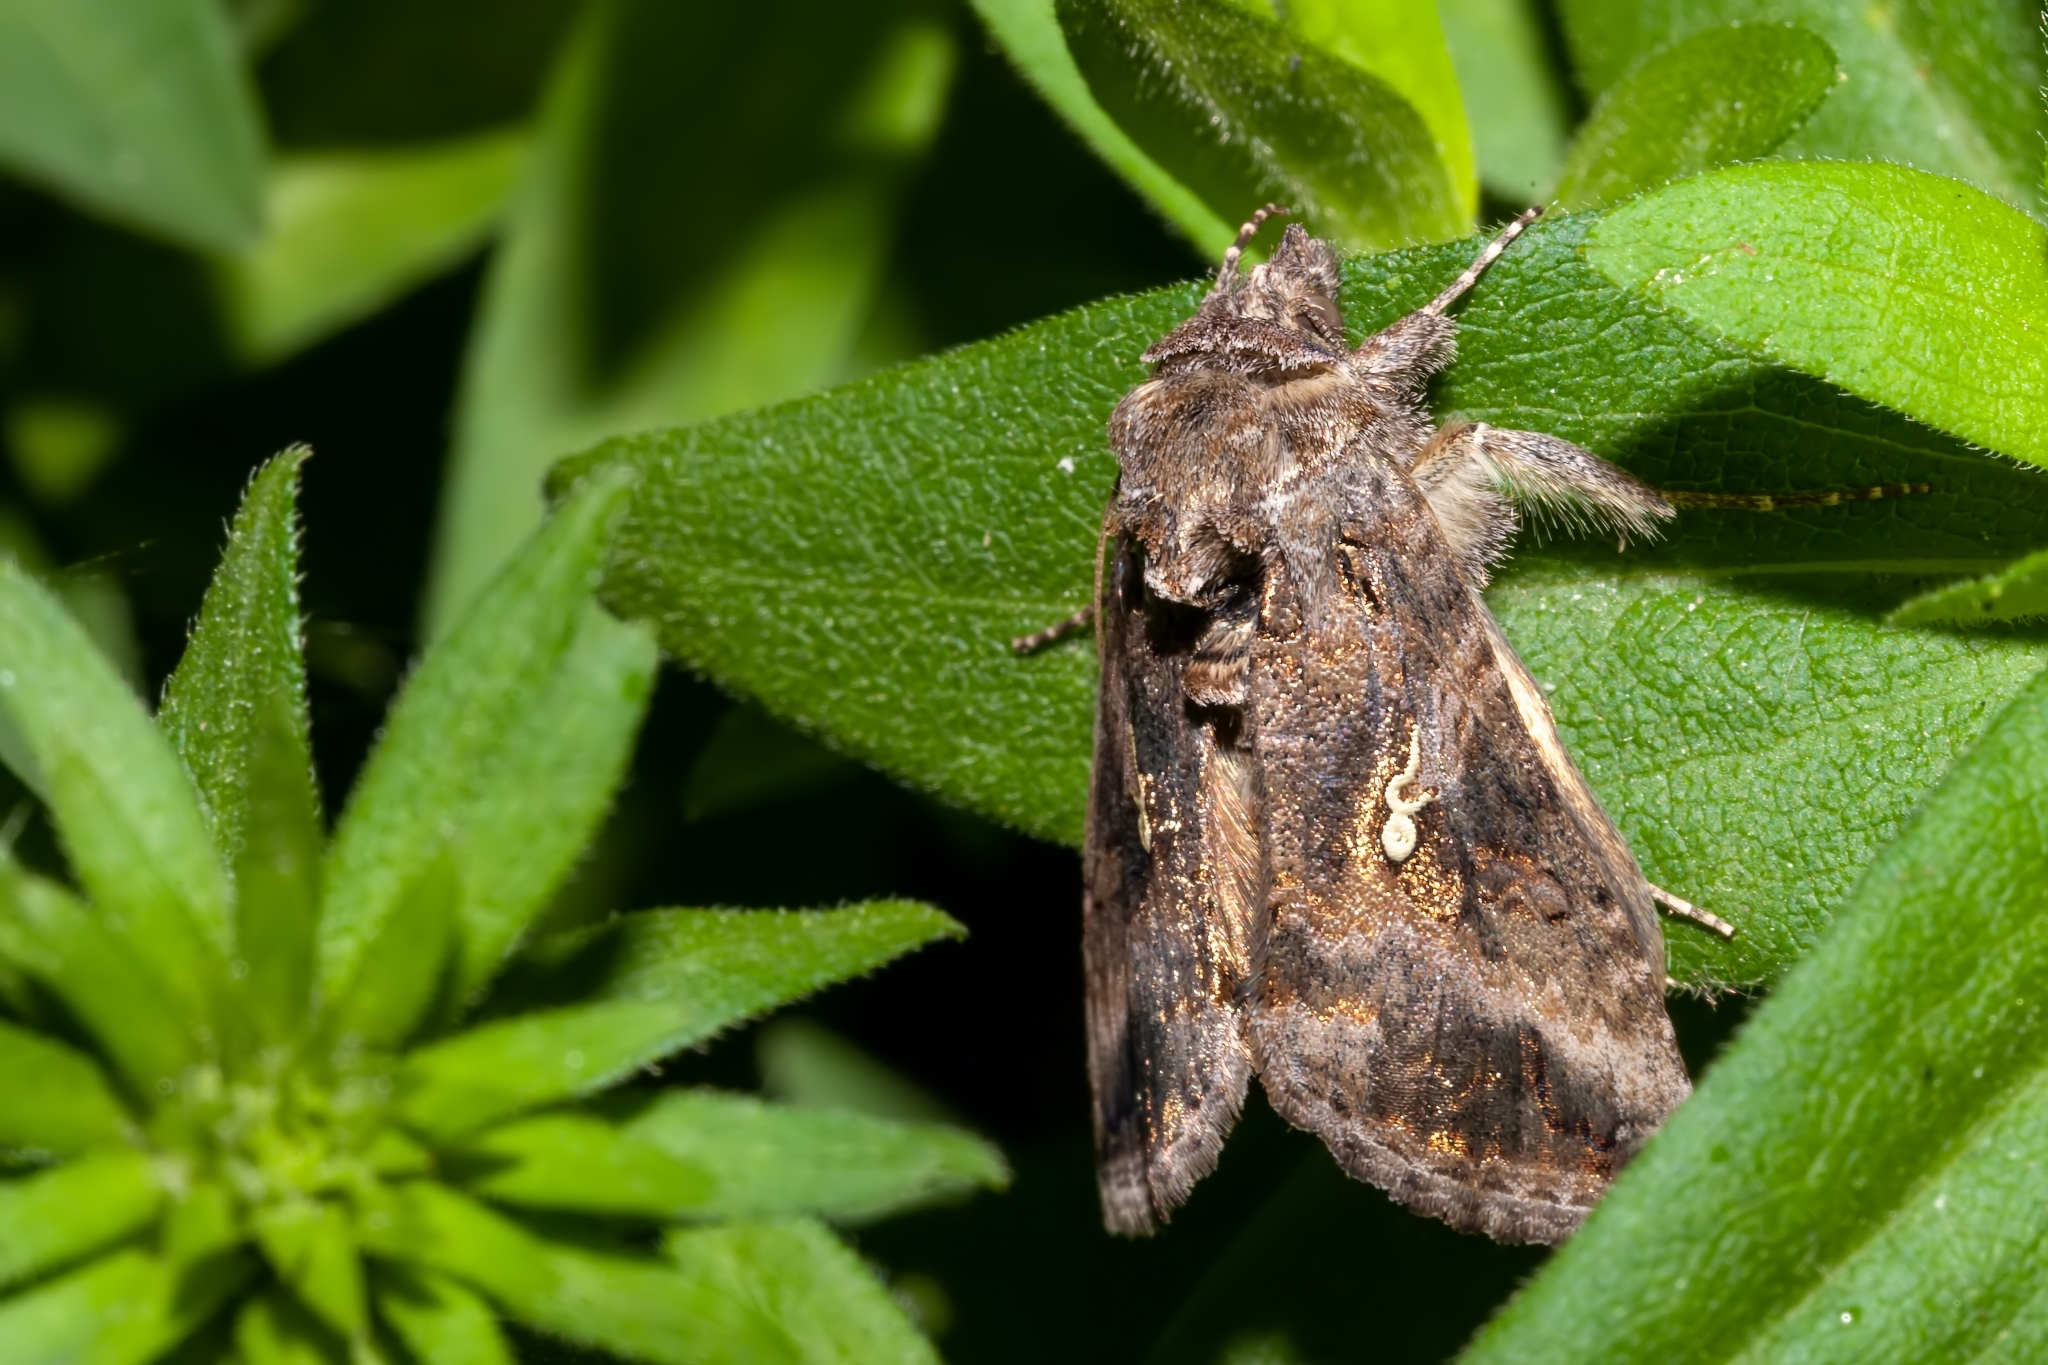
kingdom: Animalia
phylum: Arthropoda
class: Insecta
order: Lepidoptera
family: Noctuidae
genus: Rachiplusia
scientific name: Rachiplusia ou
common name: Gray looper moth
